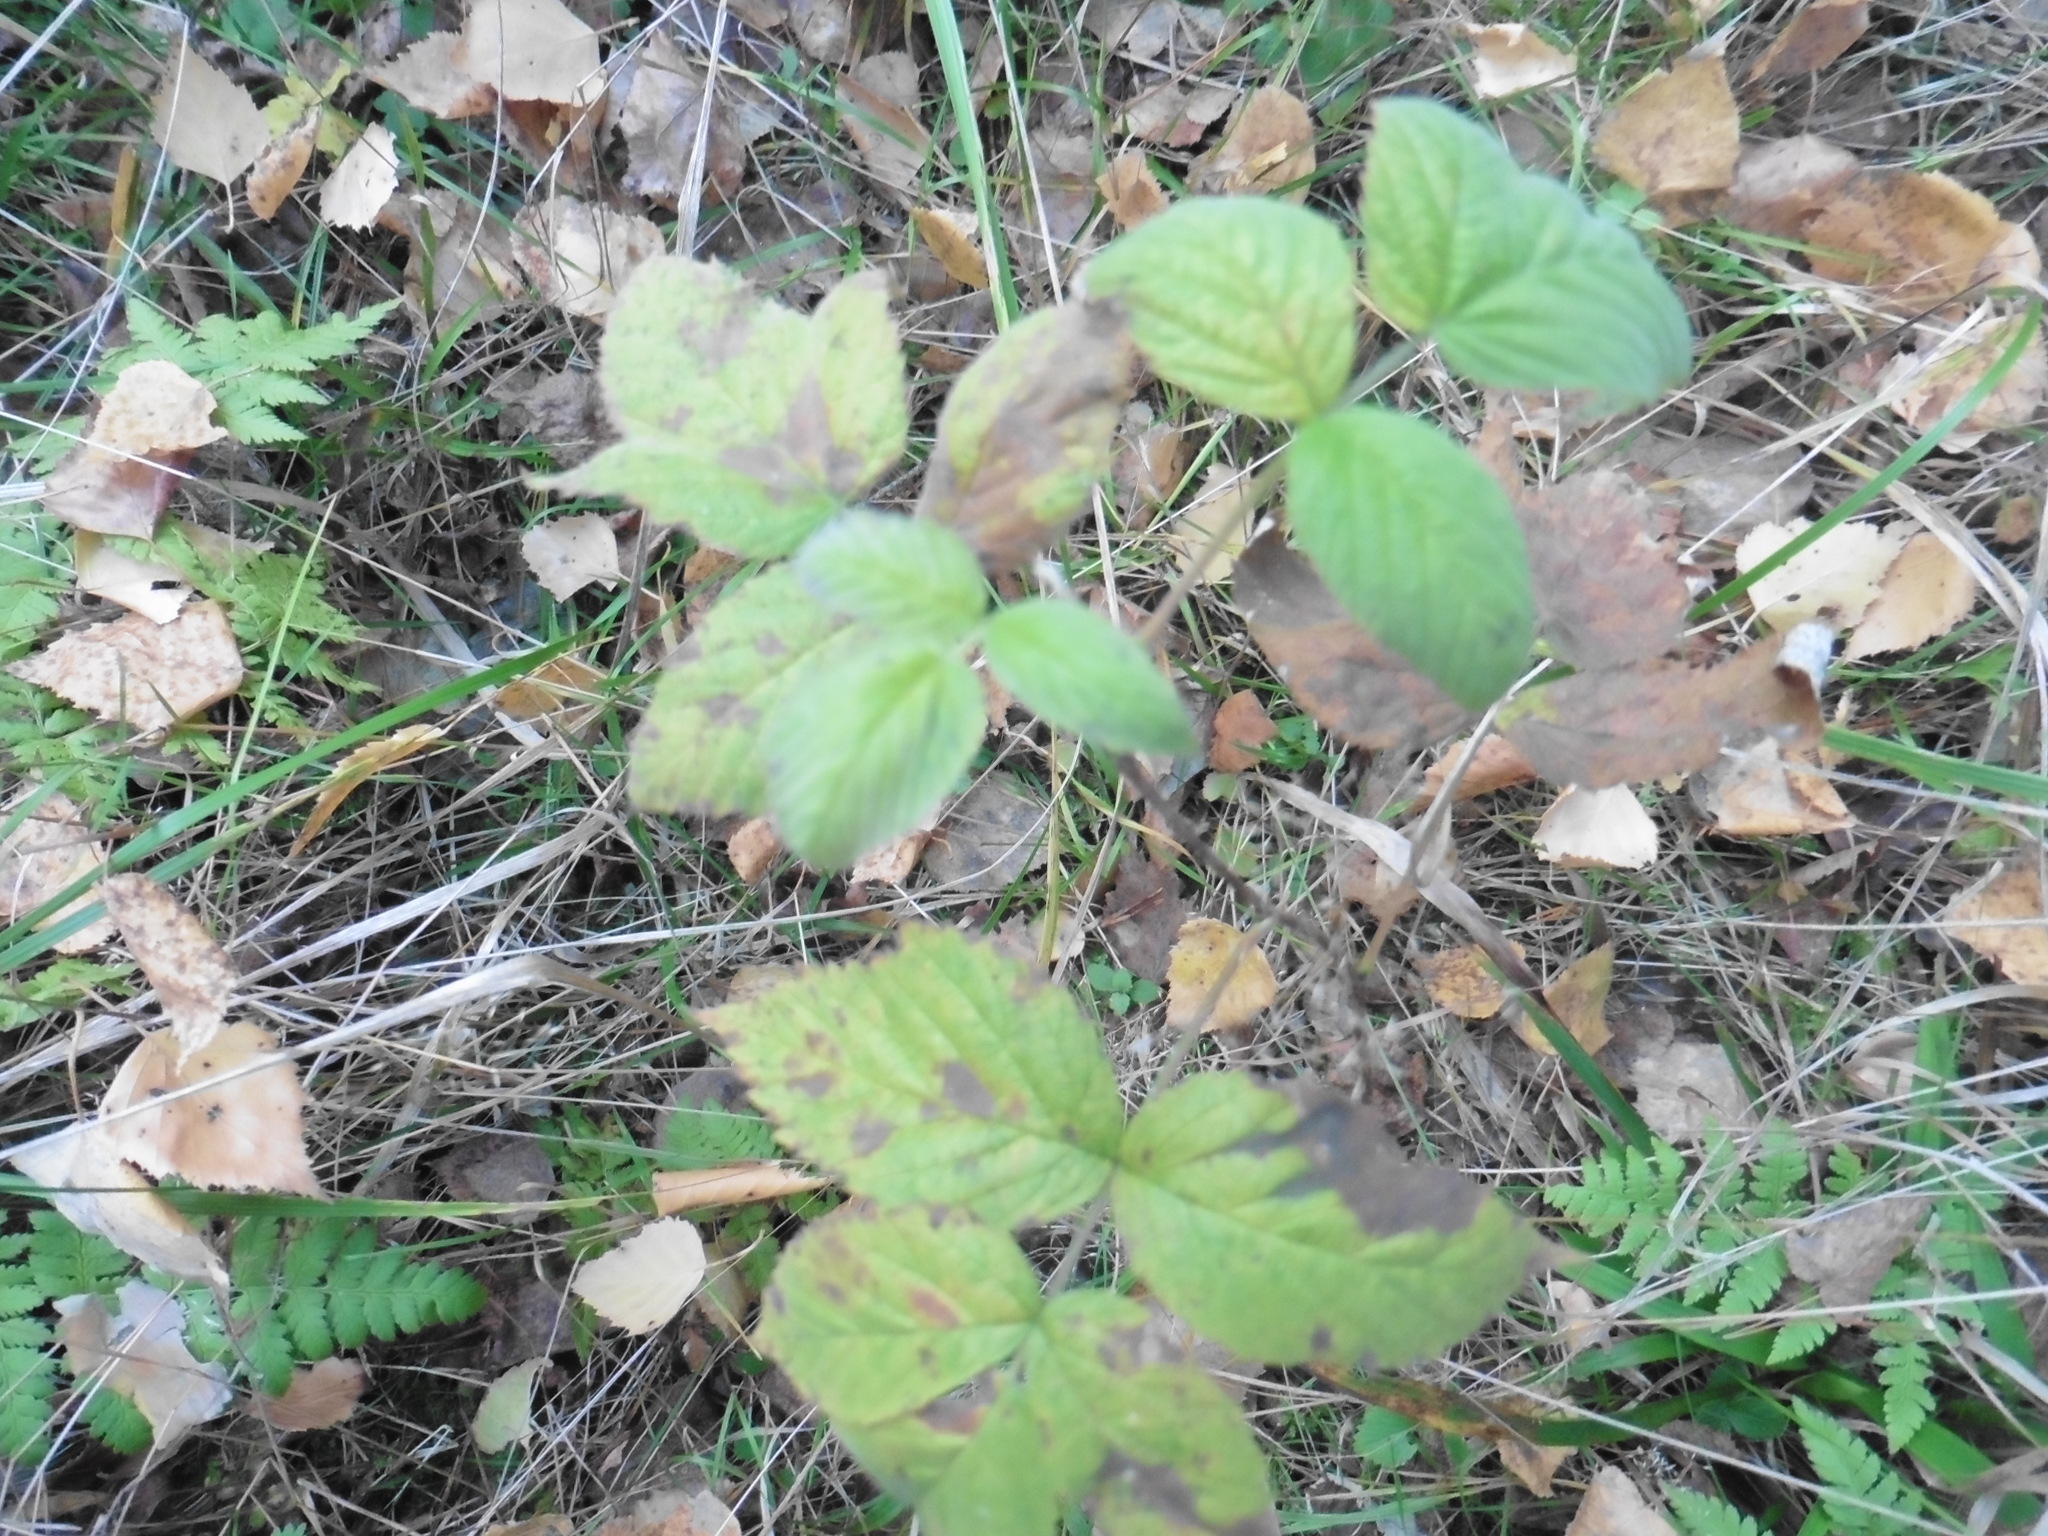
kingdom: Plantae
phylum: Tracheophyta
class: Magnoliopsida
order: Rosales
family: Rosaceae
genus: Rubus
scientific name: Rubus idaeus
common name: Raspberry
